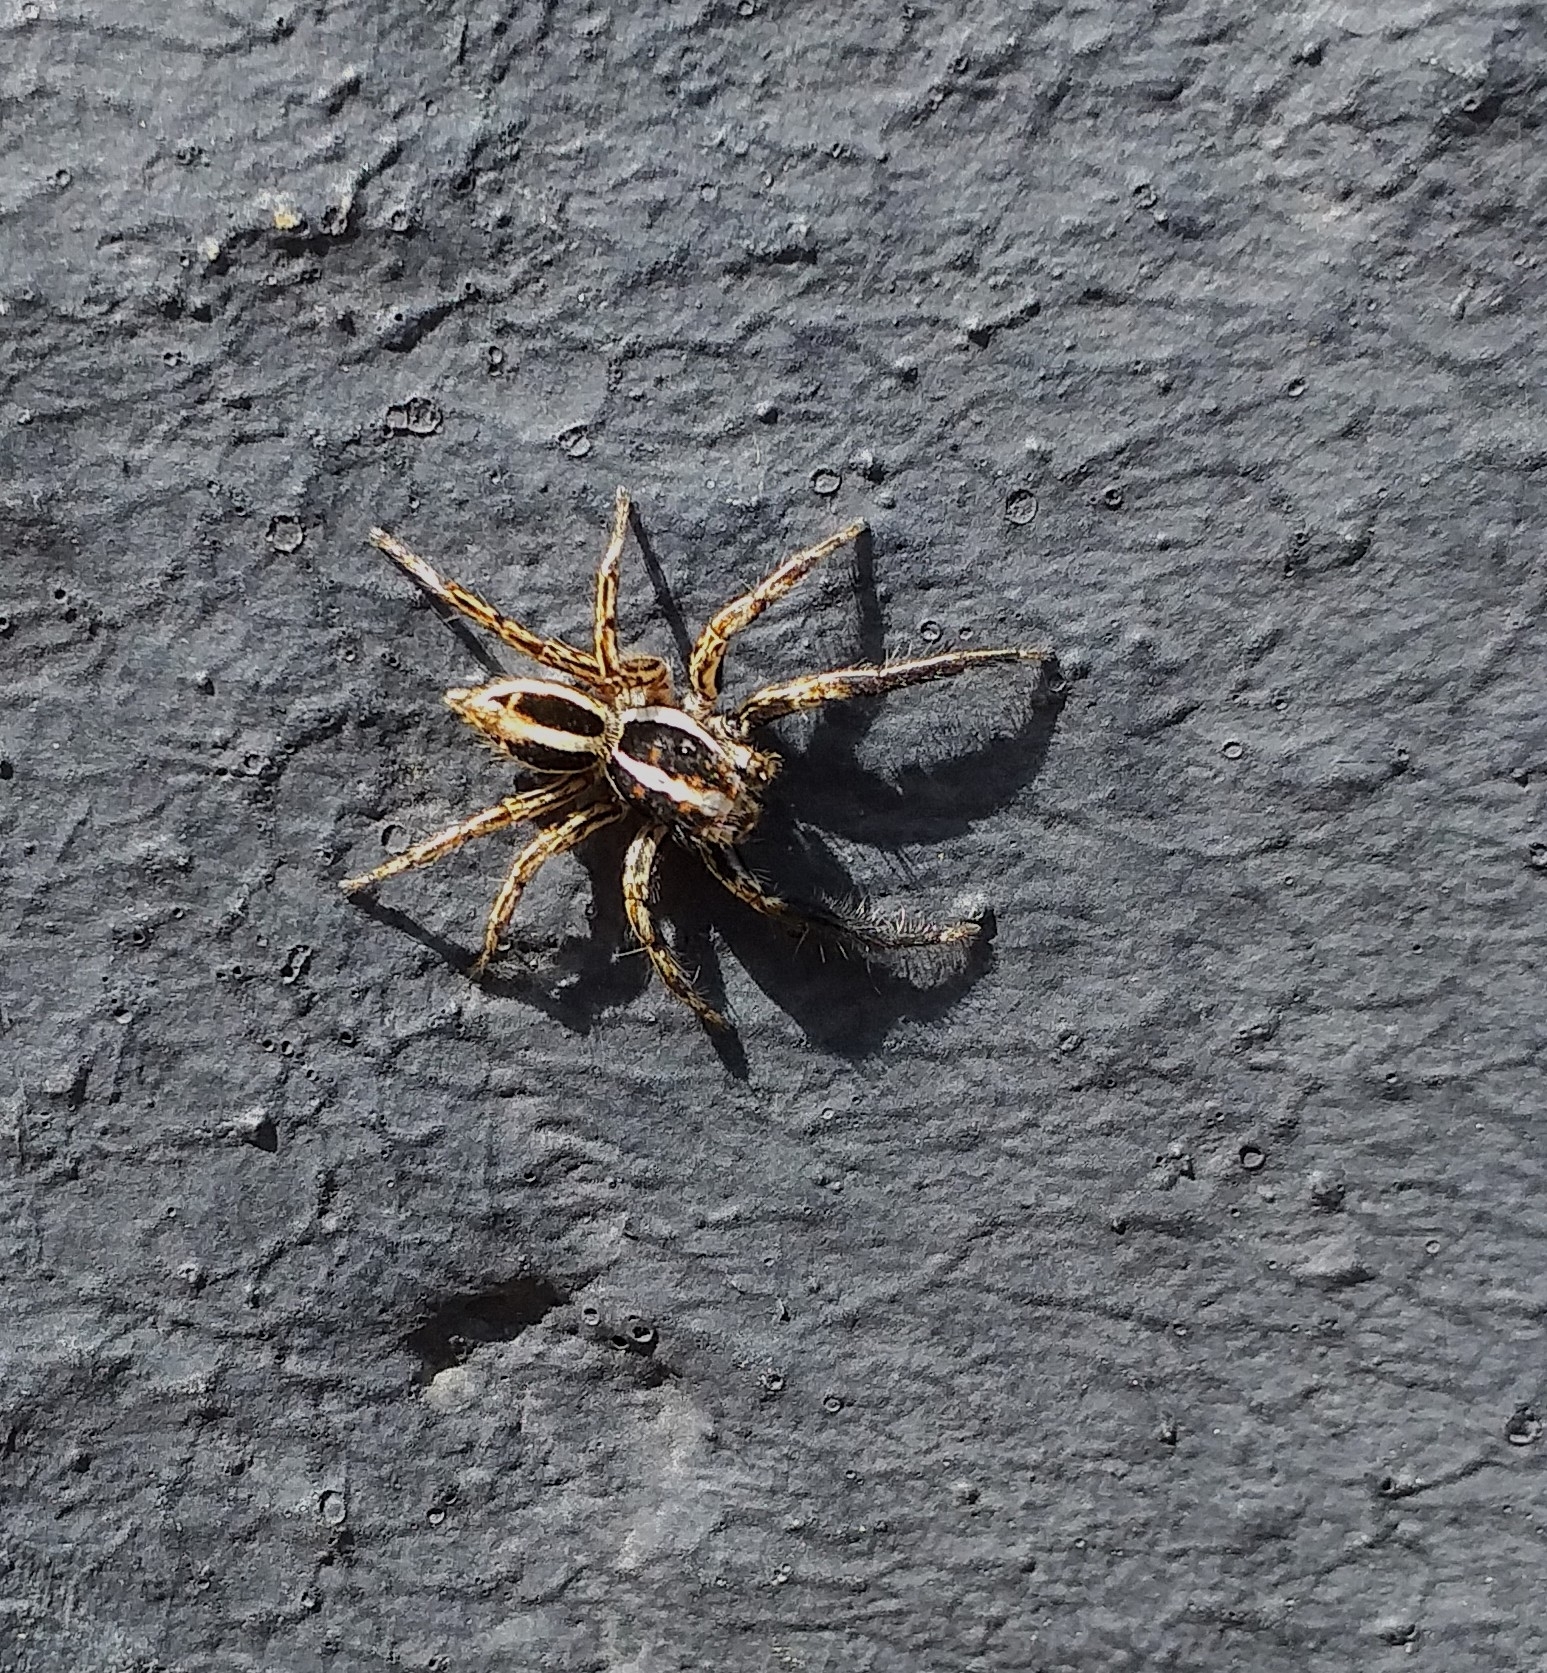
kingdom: Animalia
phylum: Arthropoda
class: Arachnida
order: Araneae
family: Salticidae
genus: Plexippus
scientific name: Plexippus paykulli
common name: Pantropical jumper
